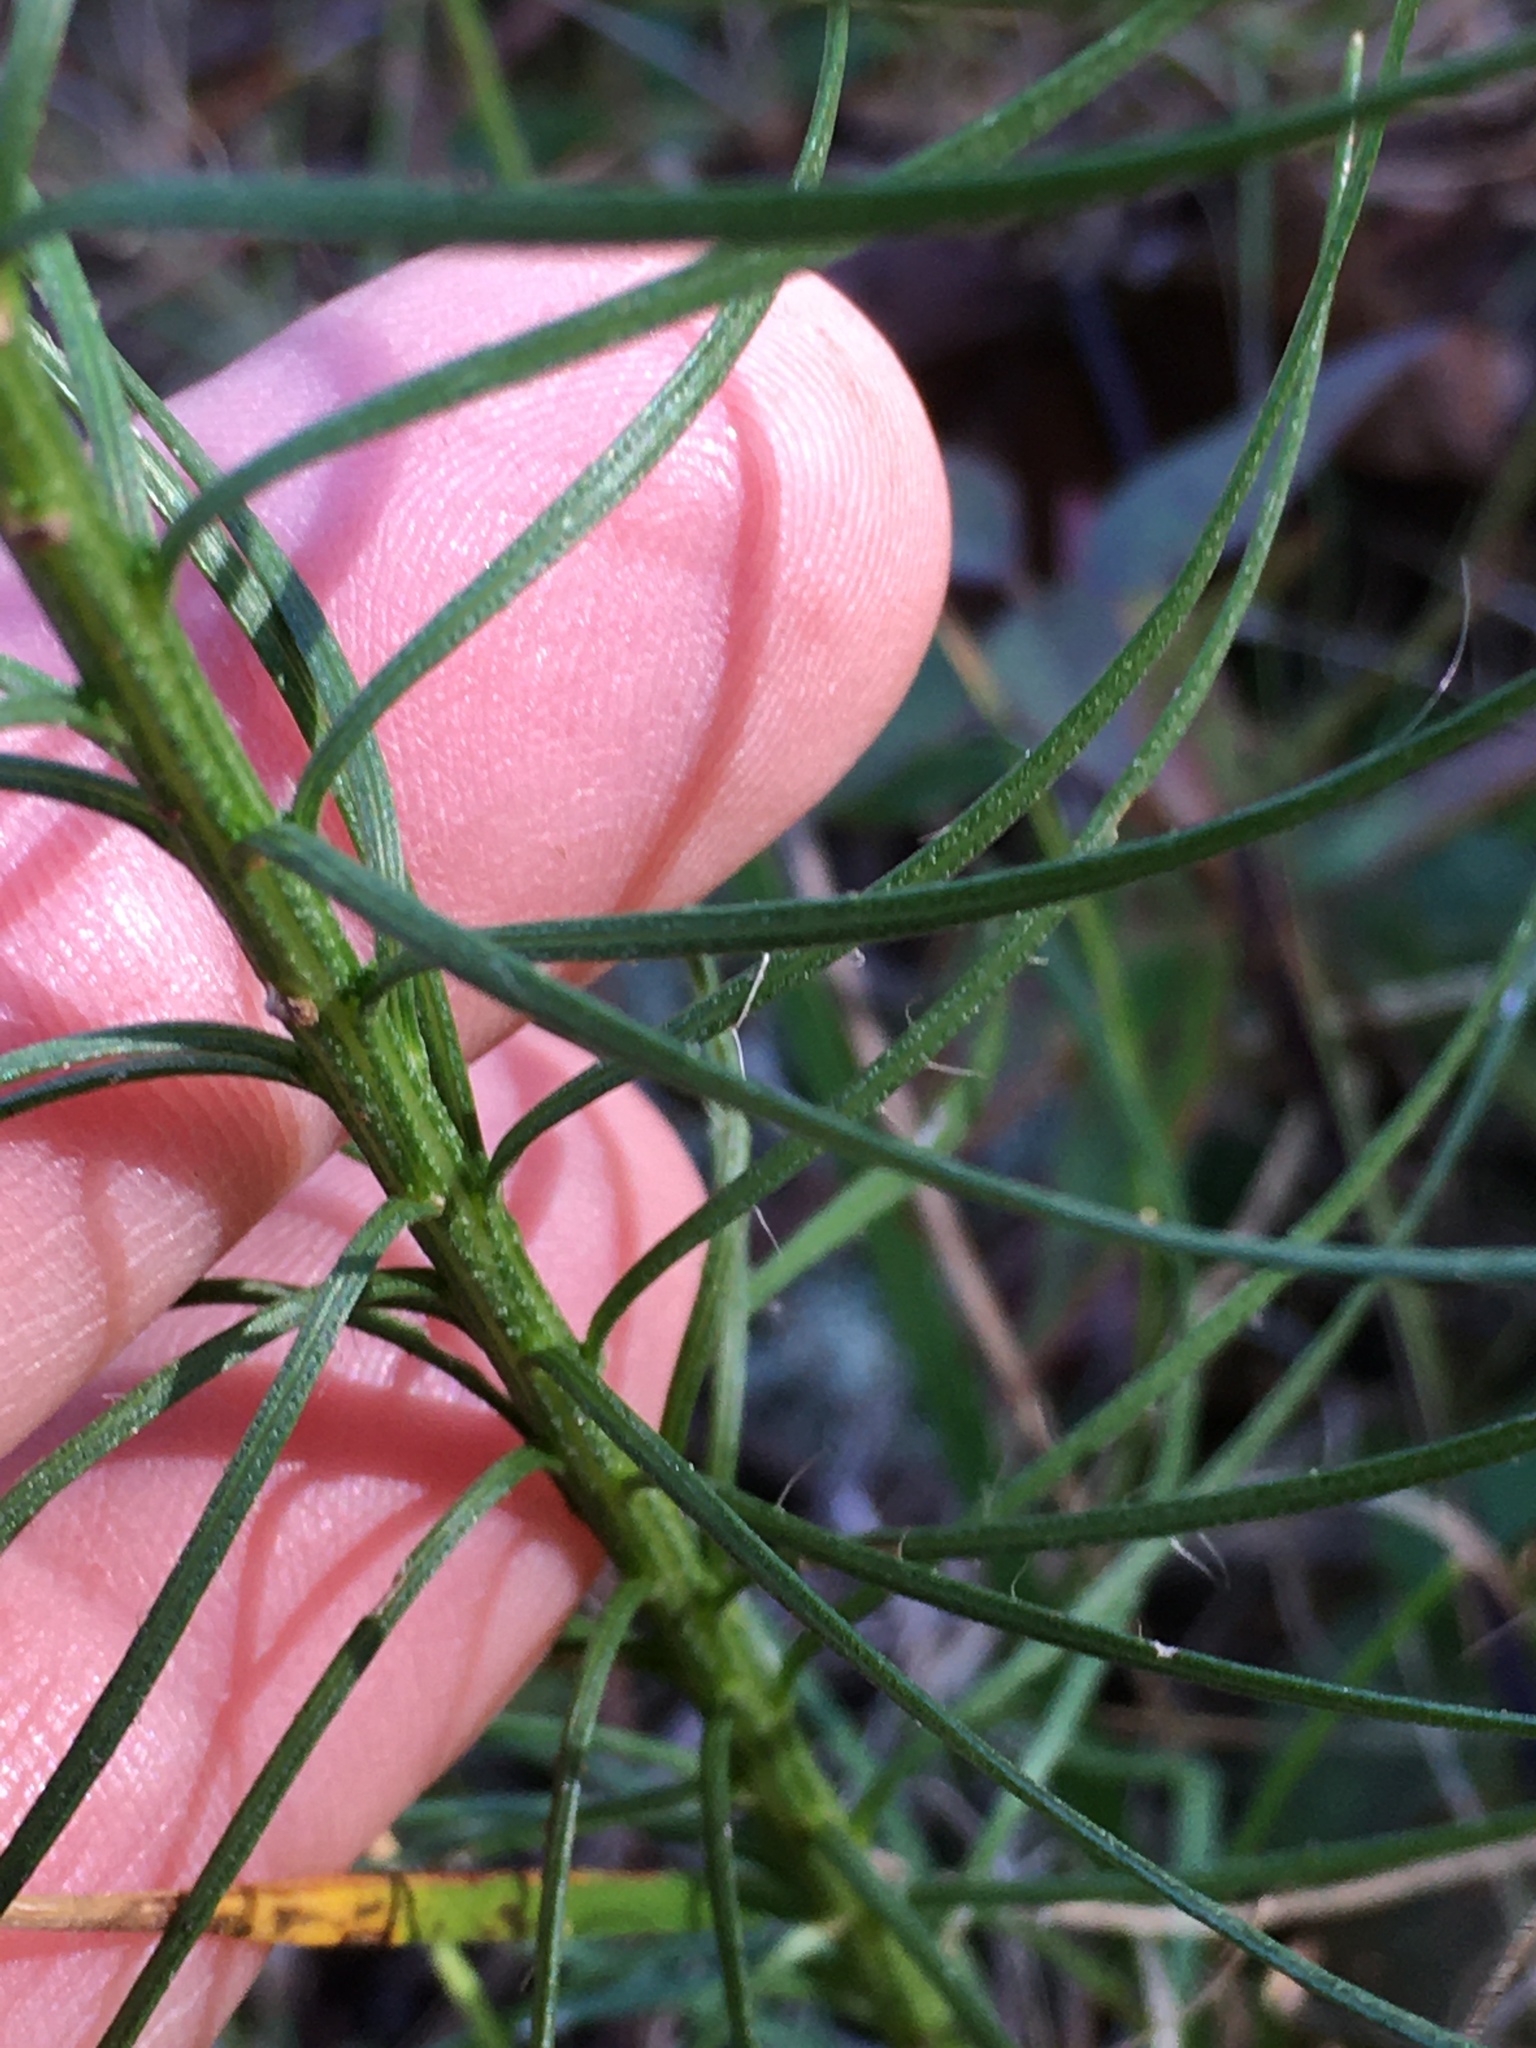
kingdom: Plantae
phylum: Tracheophyta
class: Magnoliopsida
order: Asterales
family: Asteraceae
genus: Liatris
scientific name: Liatris pilosa
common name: Grass-leaf gayfeather
